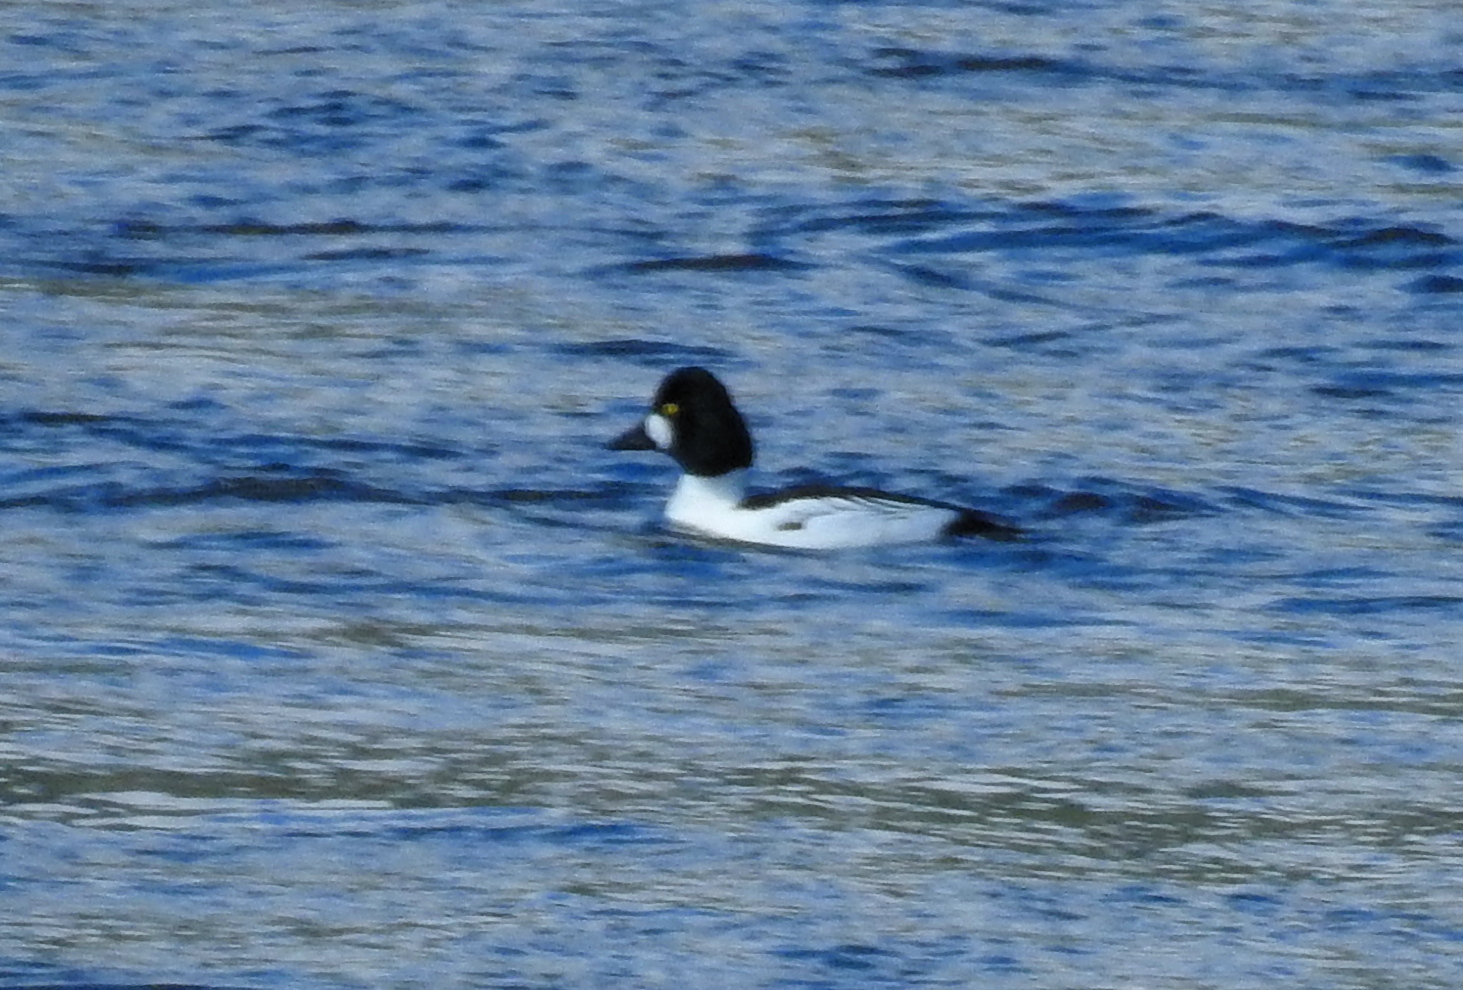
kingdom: Animalia
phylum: Chordata
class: Aves
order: Anseriformes
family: Anatidae
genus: Bucephala
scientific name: Bucephala clangula
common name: Common goldeneye
